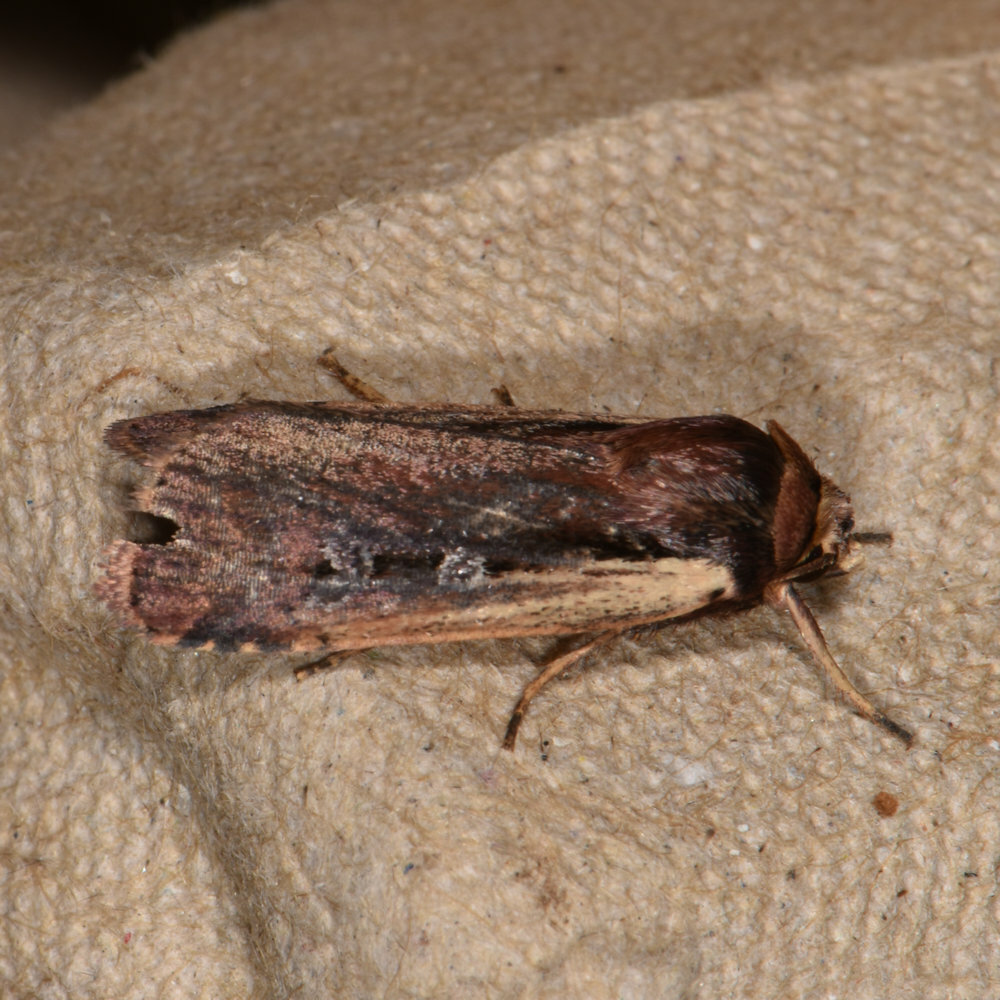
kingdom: Animalia
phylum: Arthropoda
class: Insecta
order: Lepidoptera
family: Noctuidae
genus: Ochropleura
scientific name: Ochropleura implecta
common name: Flame-shouldered dart
